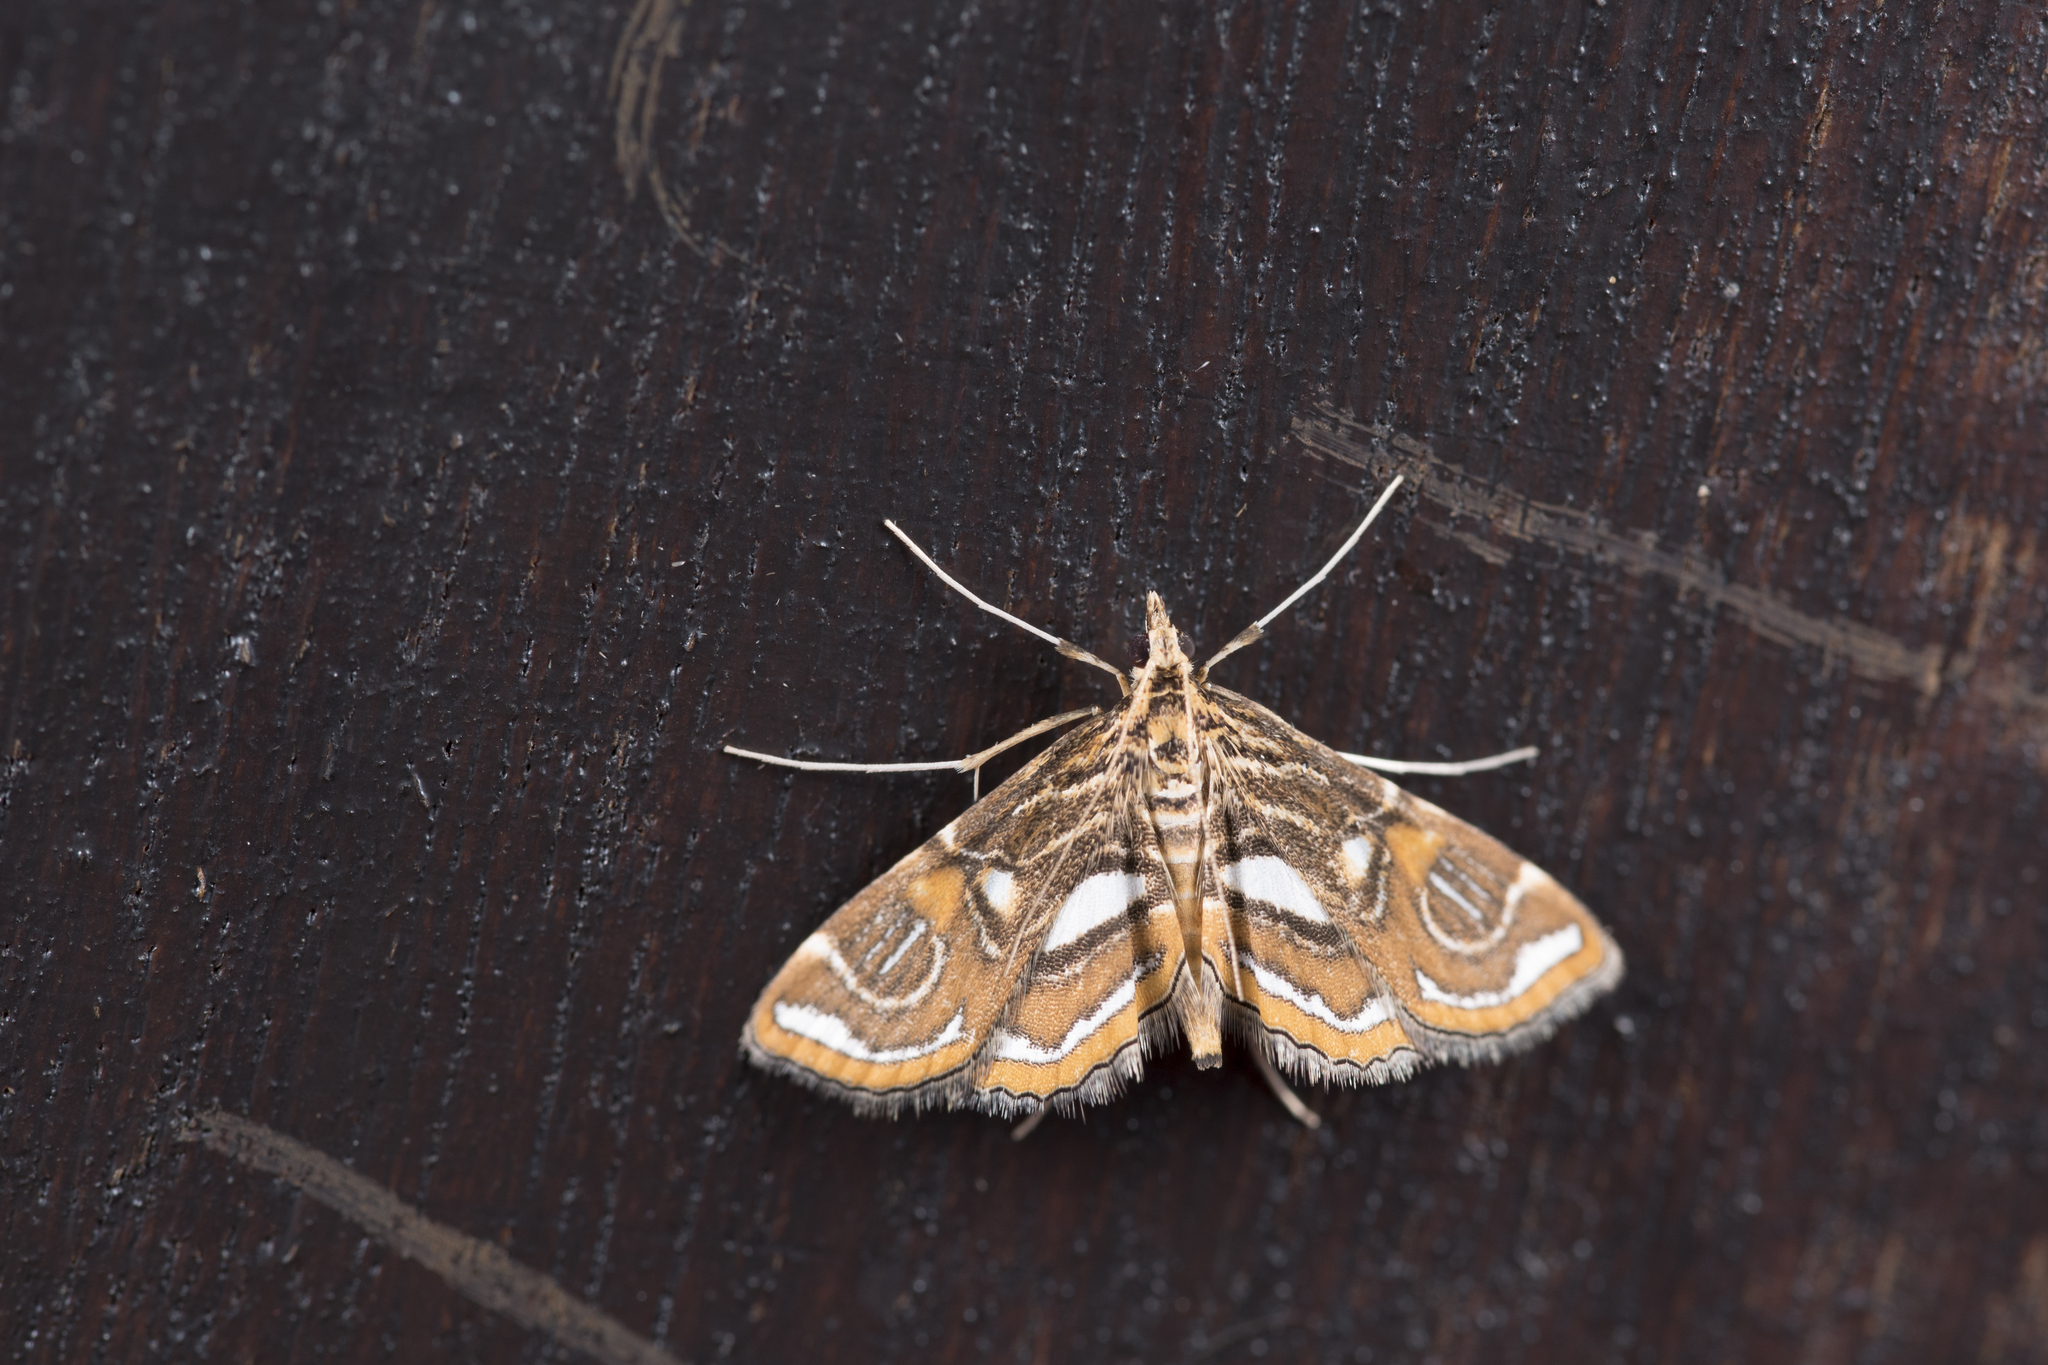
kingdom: Animalia
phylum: Arthropoda
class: Insecta
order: Lepidoptera
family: Crambidae
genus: Paracymoriza
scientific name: Paracymoriza cataclystalis
